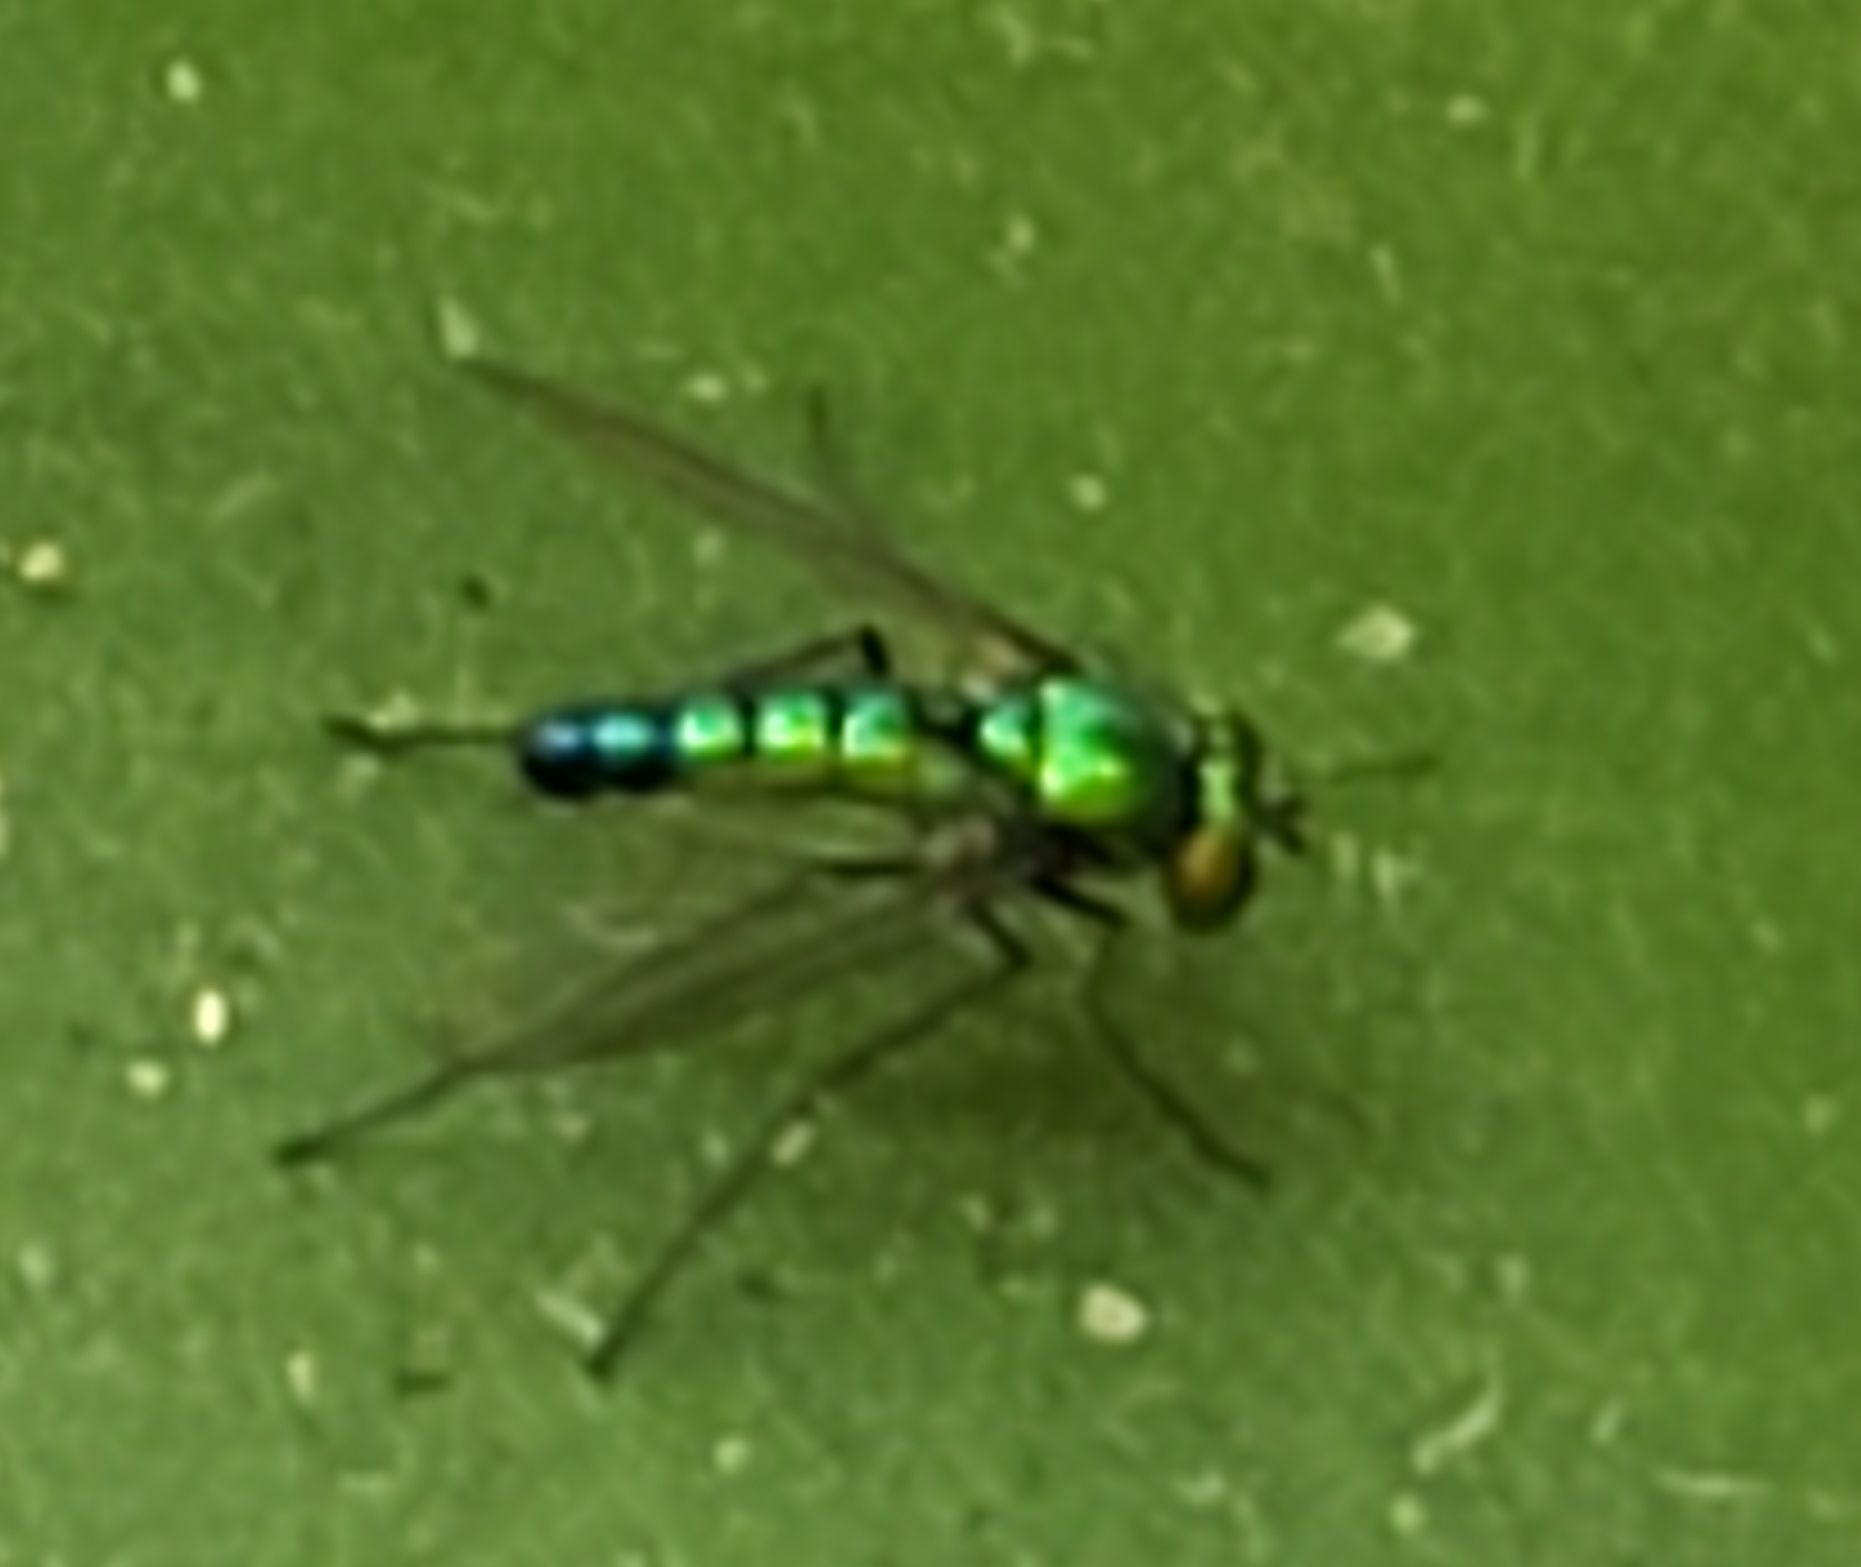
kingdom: Animalia
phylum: Arthropoda
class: Insecta
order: Diptera
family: Dolichopodidae
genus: Condylostylus
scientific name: Condylostylus longicornis
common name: Long-legged fly
